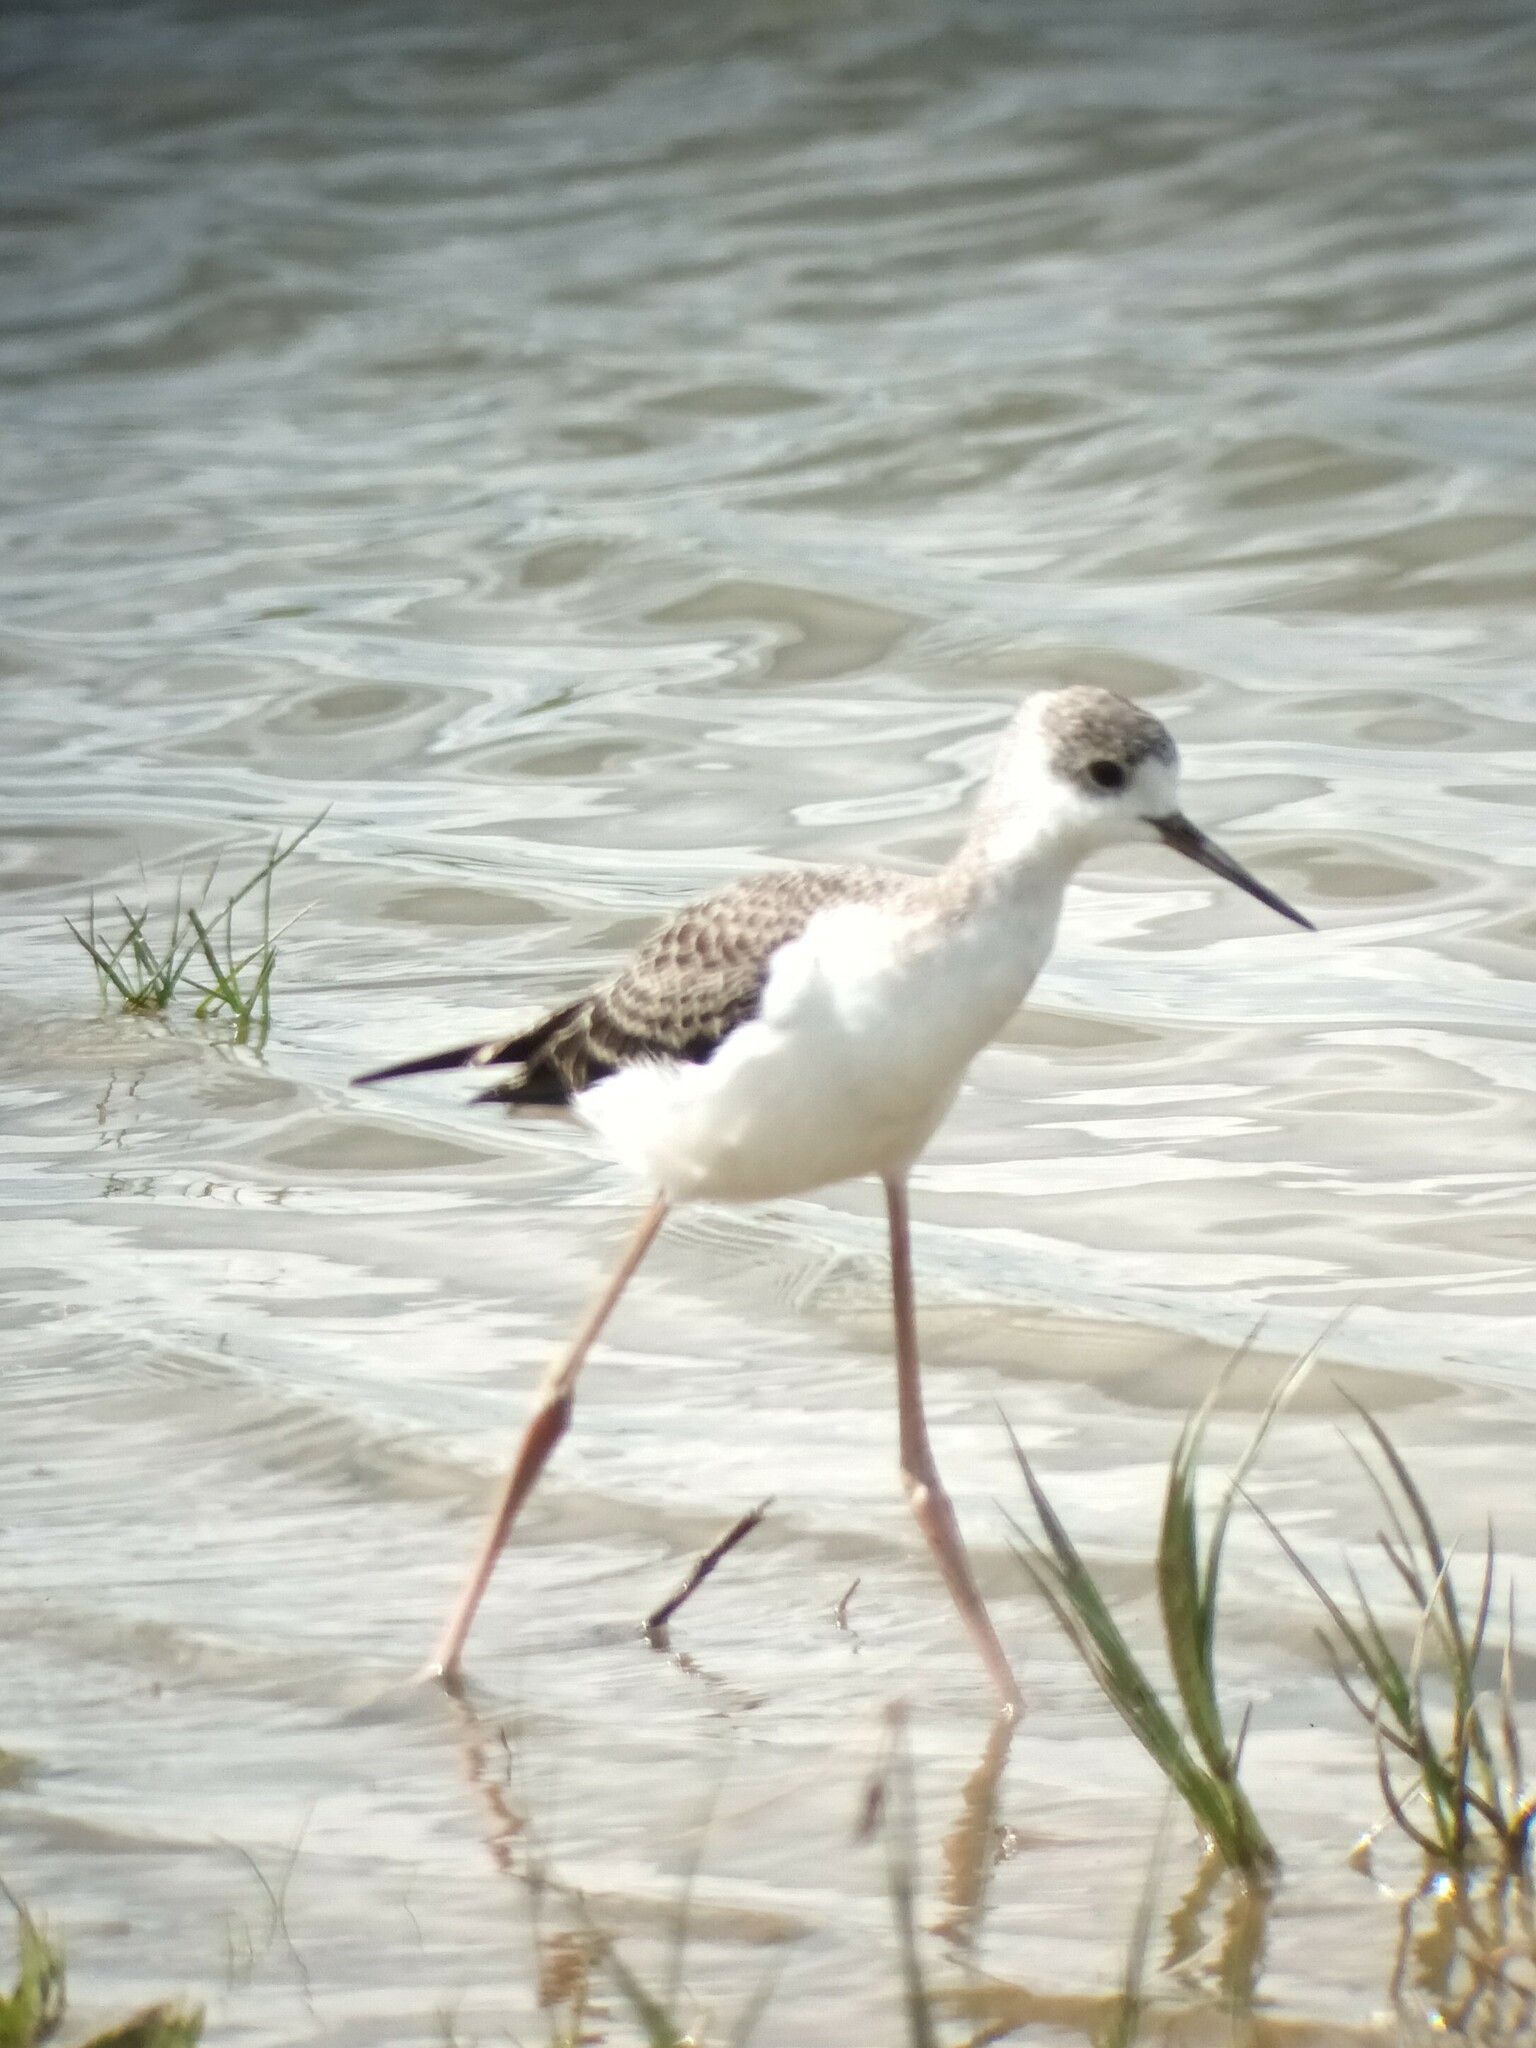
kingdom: Animalia
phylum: Chordata
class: Aves
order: Charadriiformes
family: Recurvirostridae
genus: Himantopus
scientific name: Himantopus himantopus
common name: Black-winged stilt
